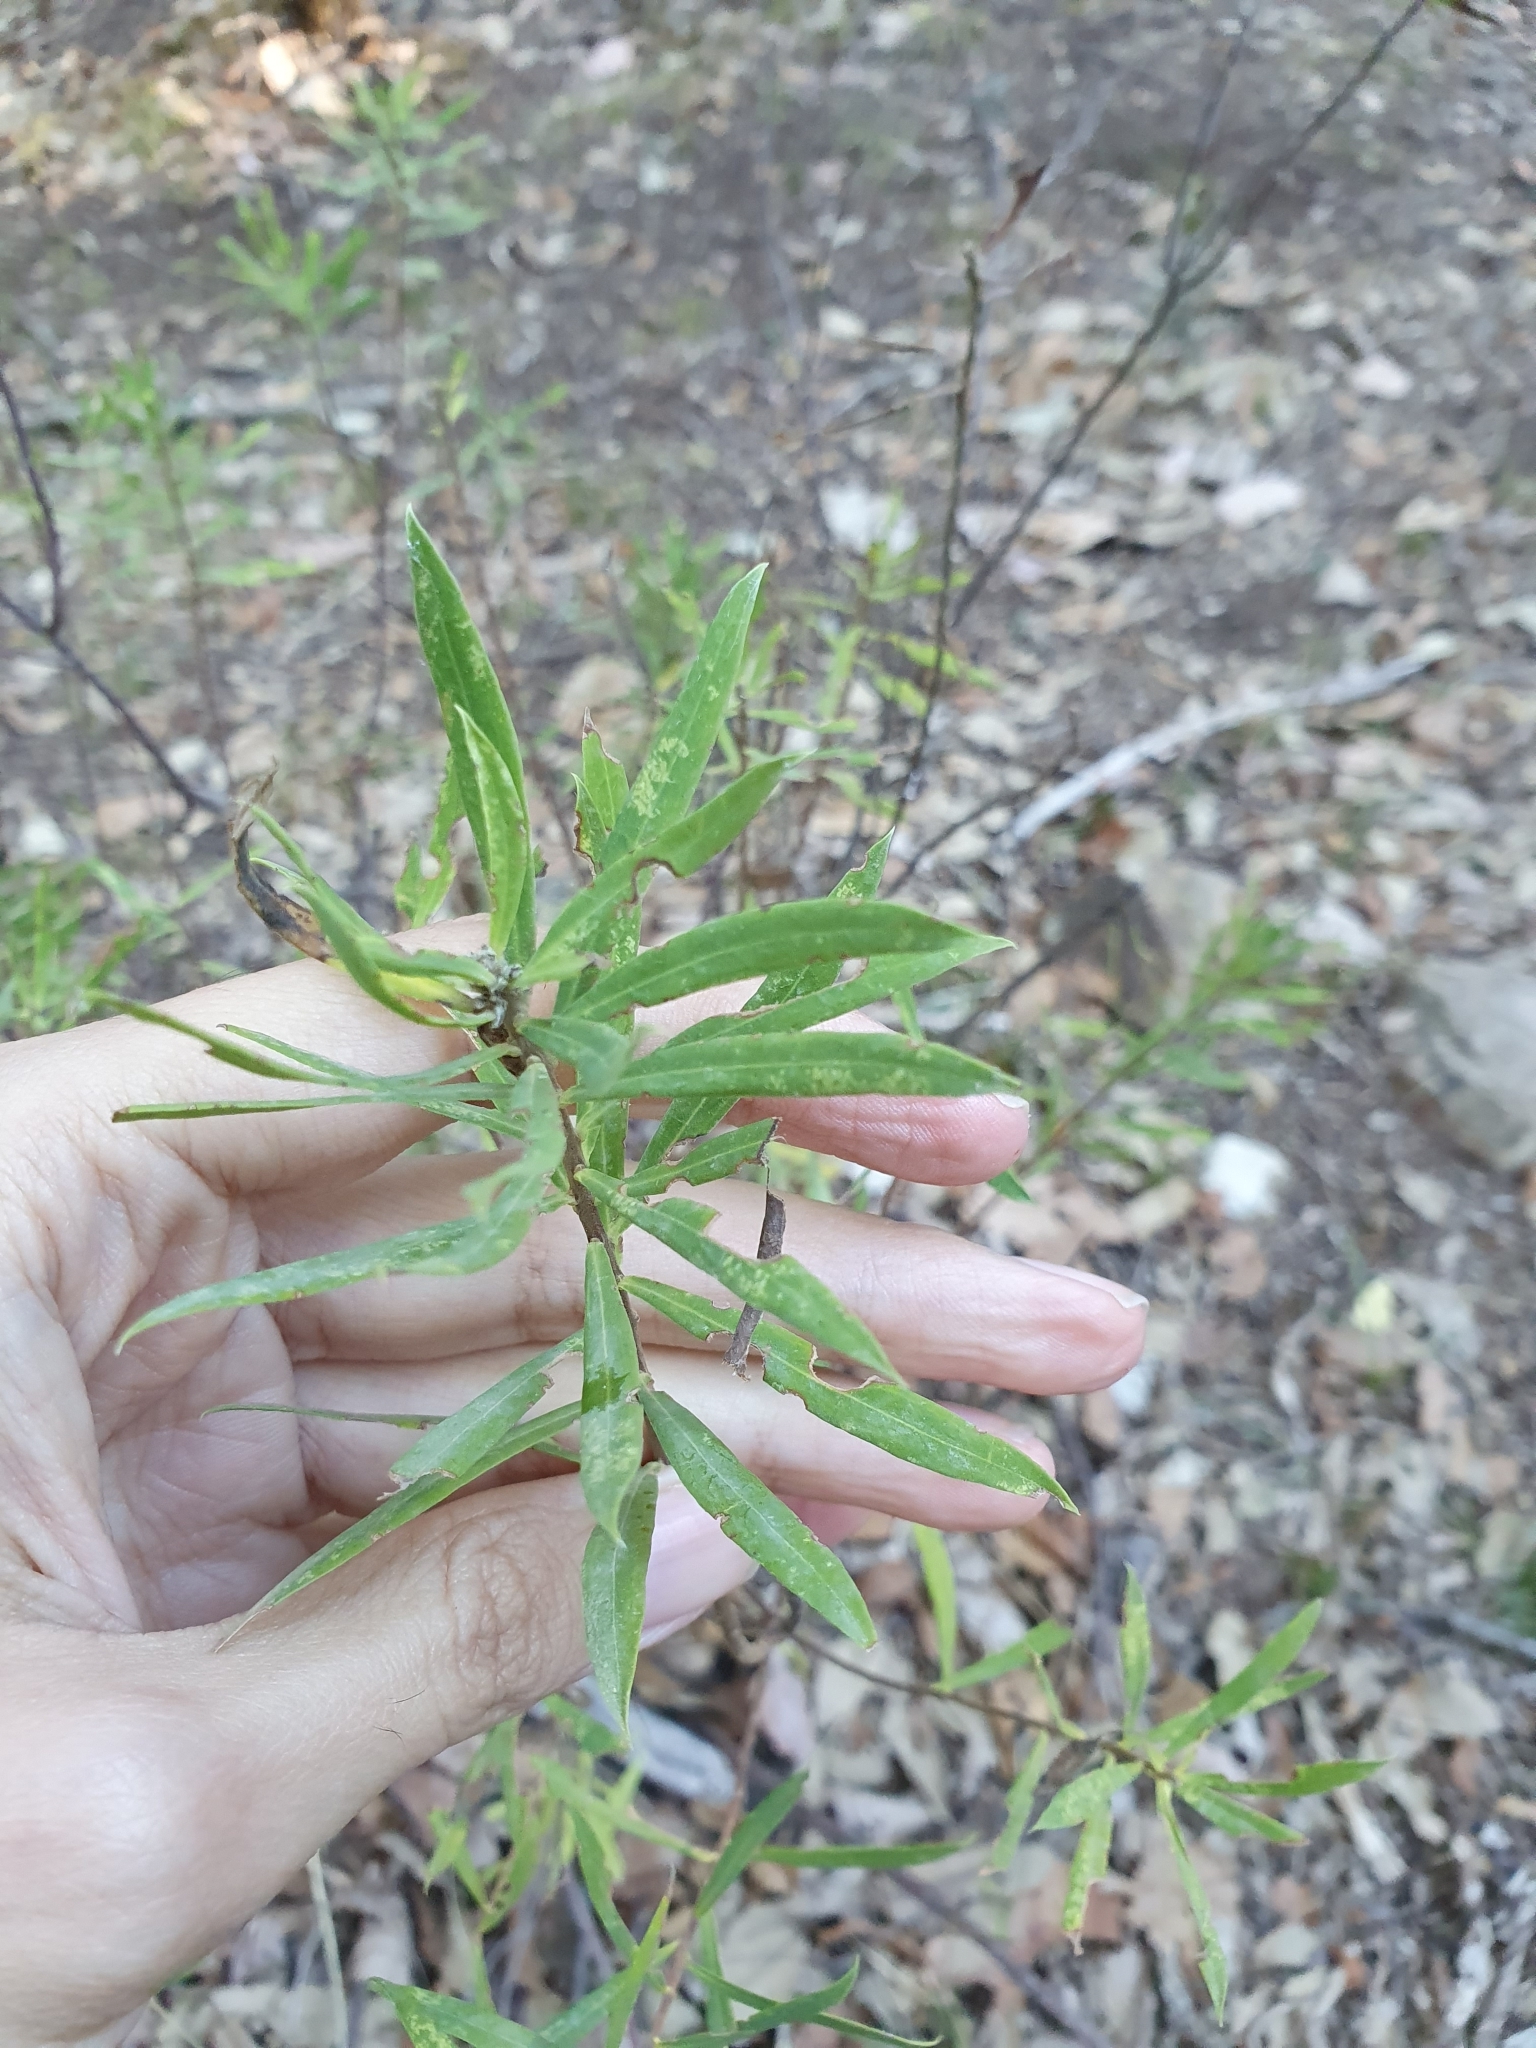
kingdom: Plantae
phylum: Tracheophyta
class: Magnoliopsida
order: Malvales
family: Thymelaeaceae
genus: Daphne
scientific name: Daphne gnidium
